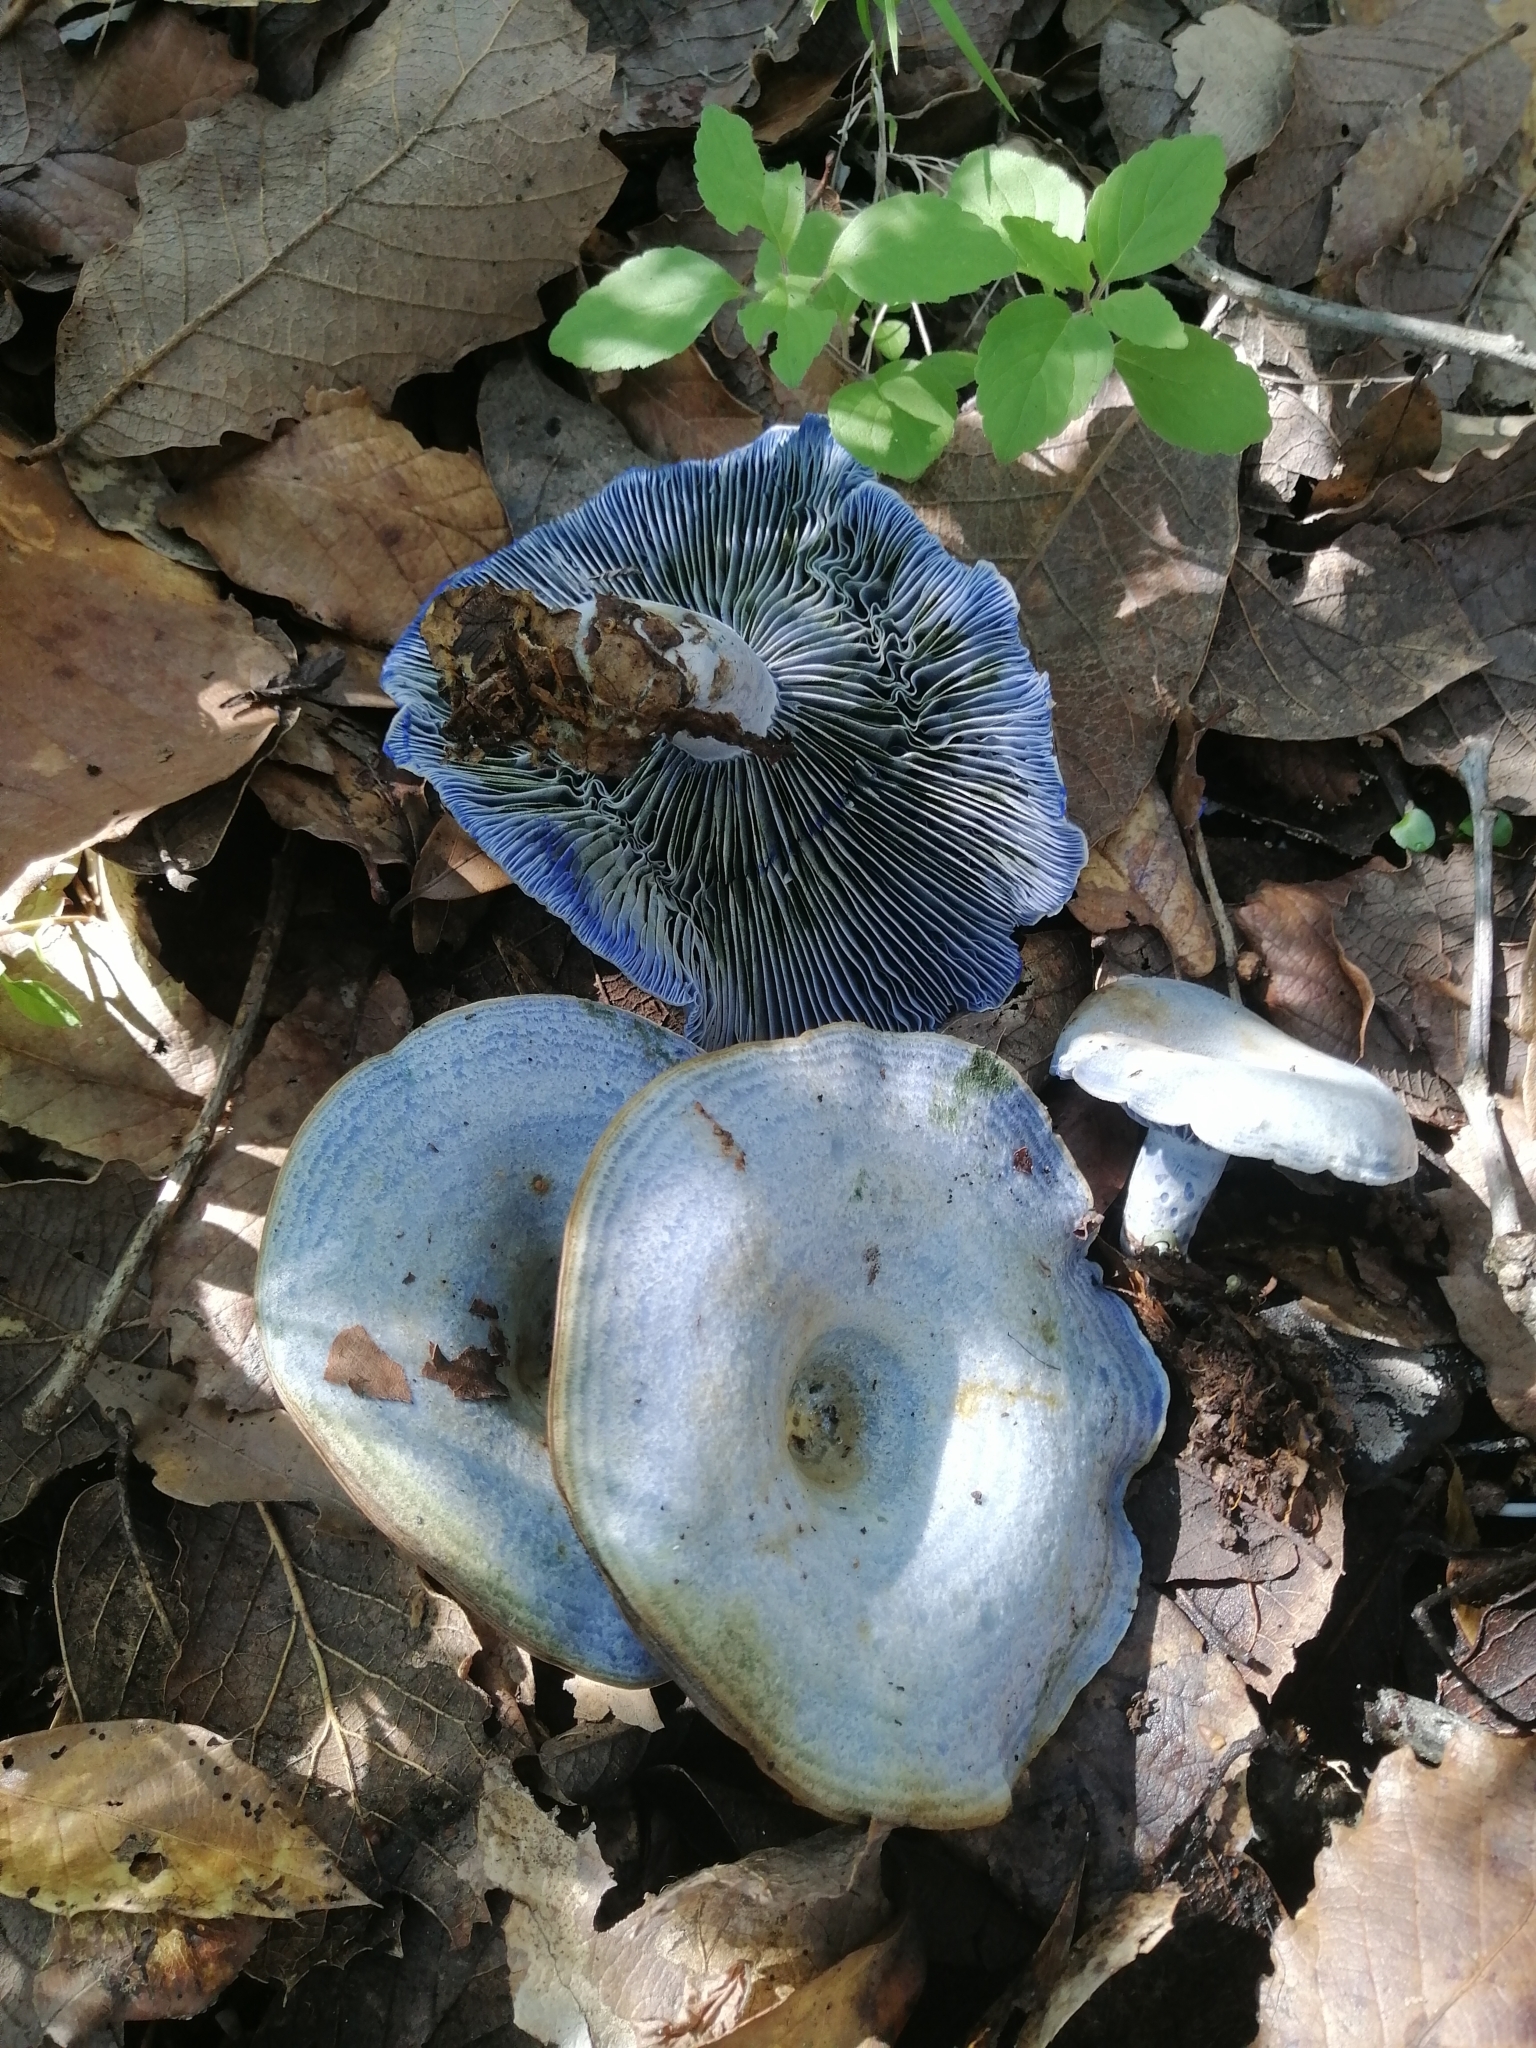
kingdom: Fungi
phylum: Basidiomycota
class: Agaricomycetes
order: Russulales
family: Russulaceae
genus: Lactarius
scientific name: Lactarius indigo
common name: Indigo milk cap
